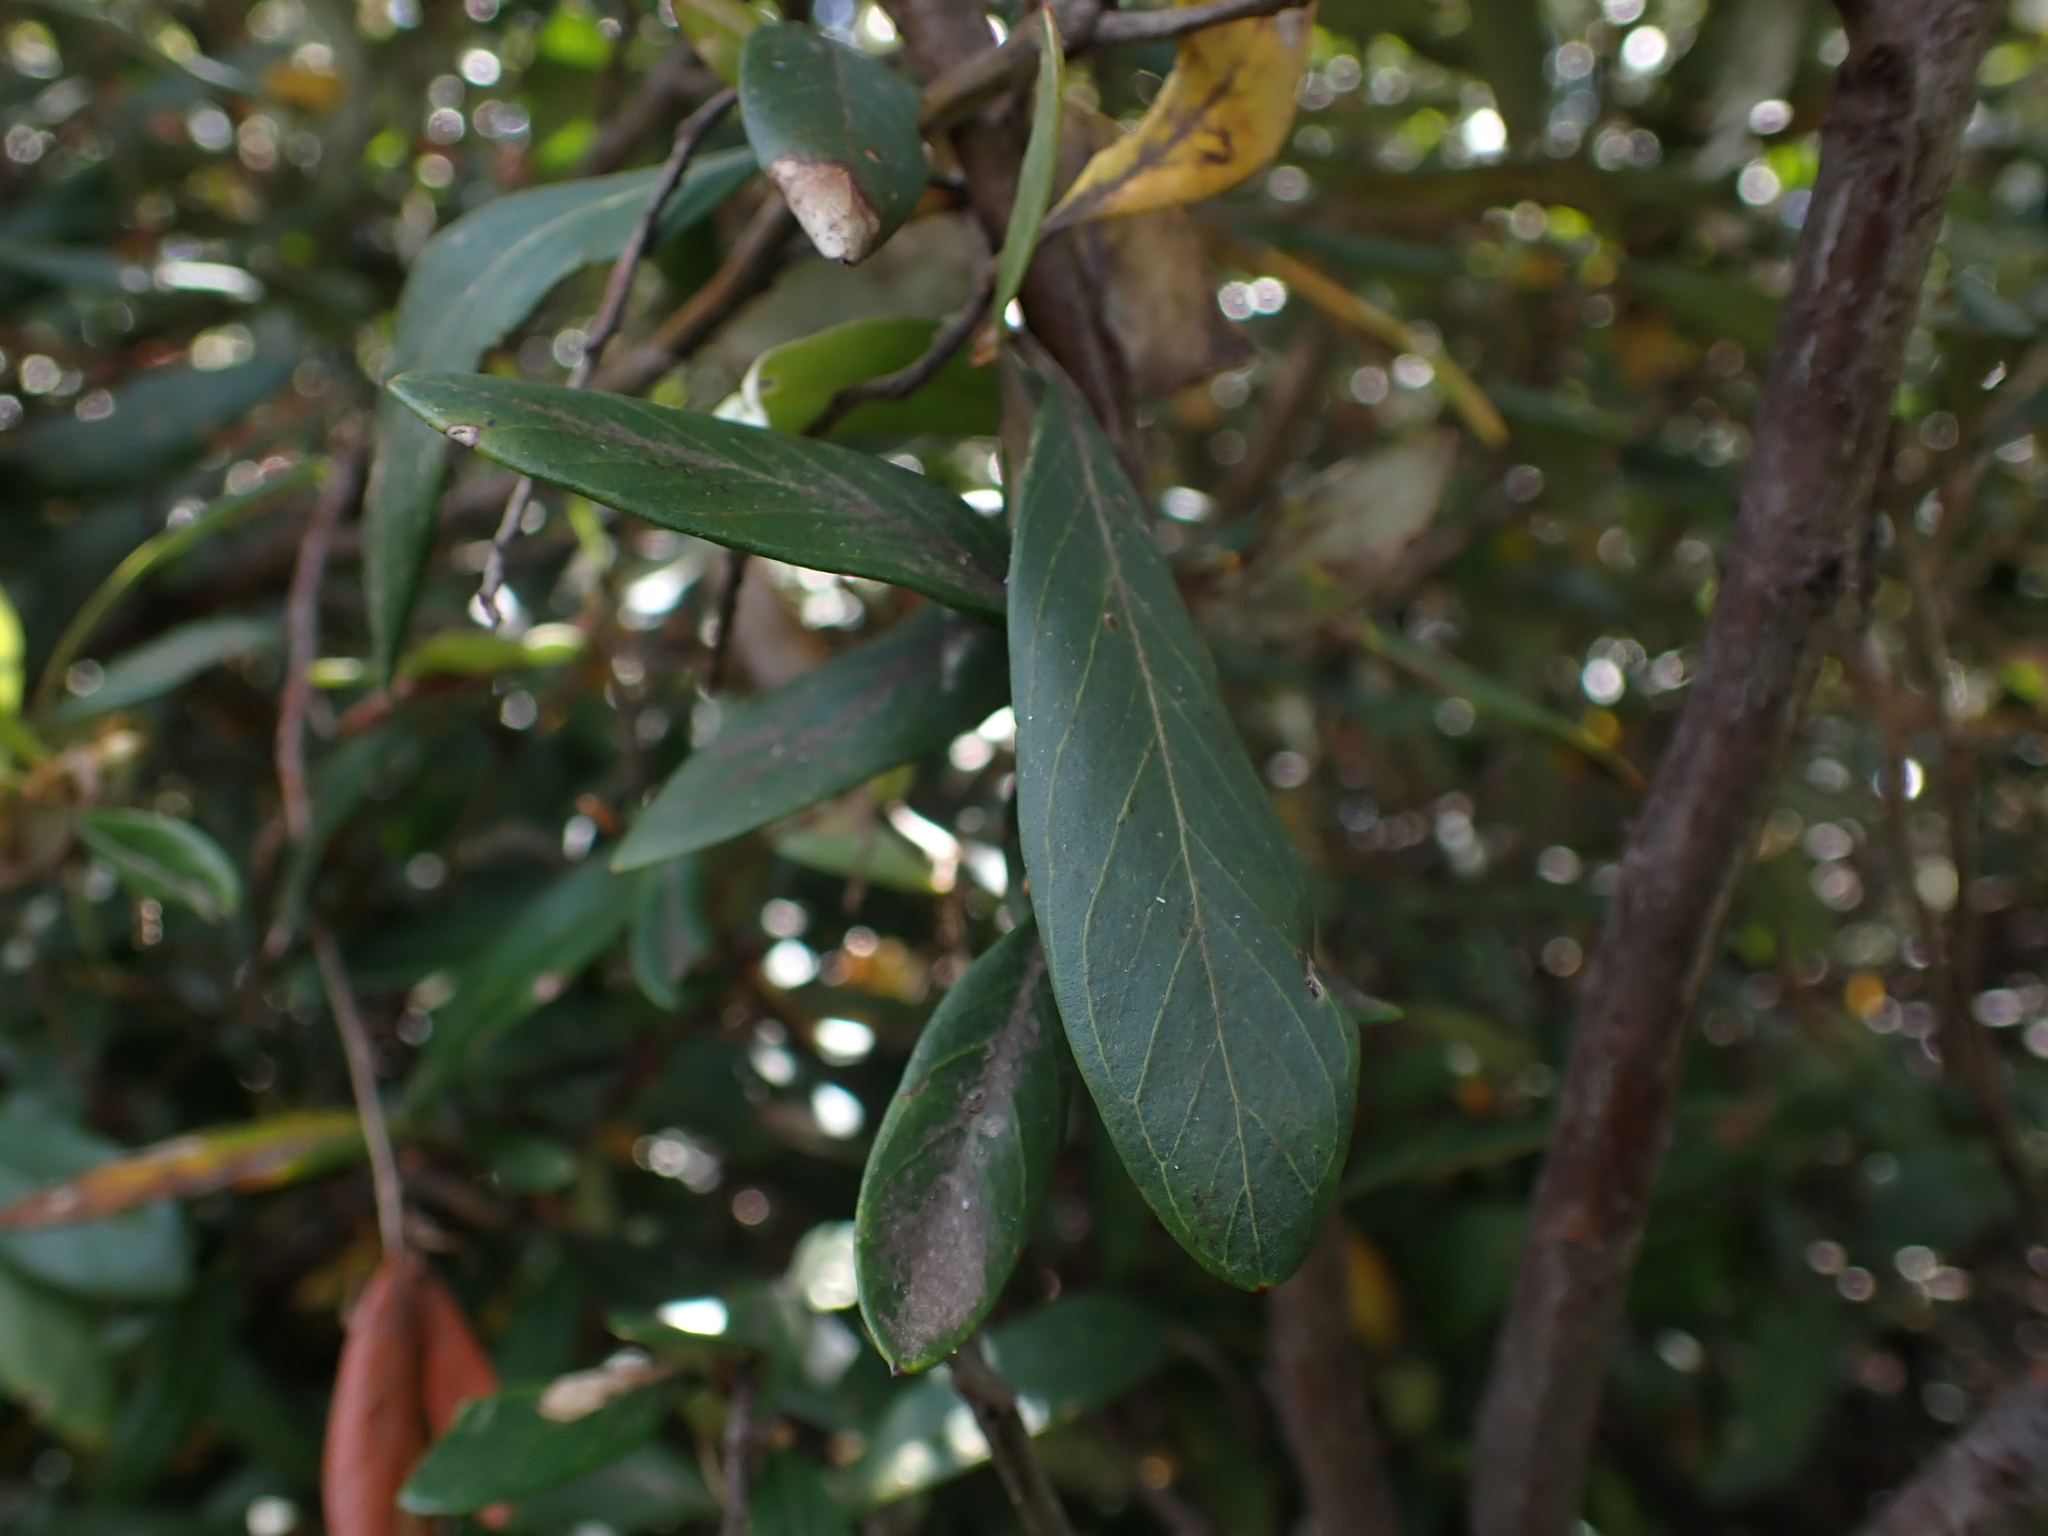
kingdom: Plantae
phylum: Tracheophyta
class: Magnoliopsida
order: Proteales
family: Proteaceae
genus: Grevillea
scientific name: Grevillea victoriae
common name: Royal grevillea
